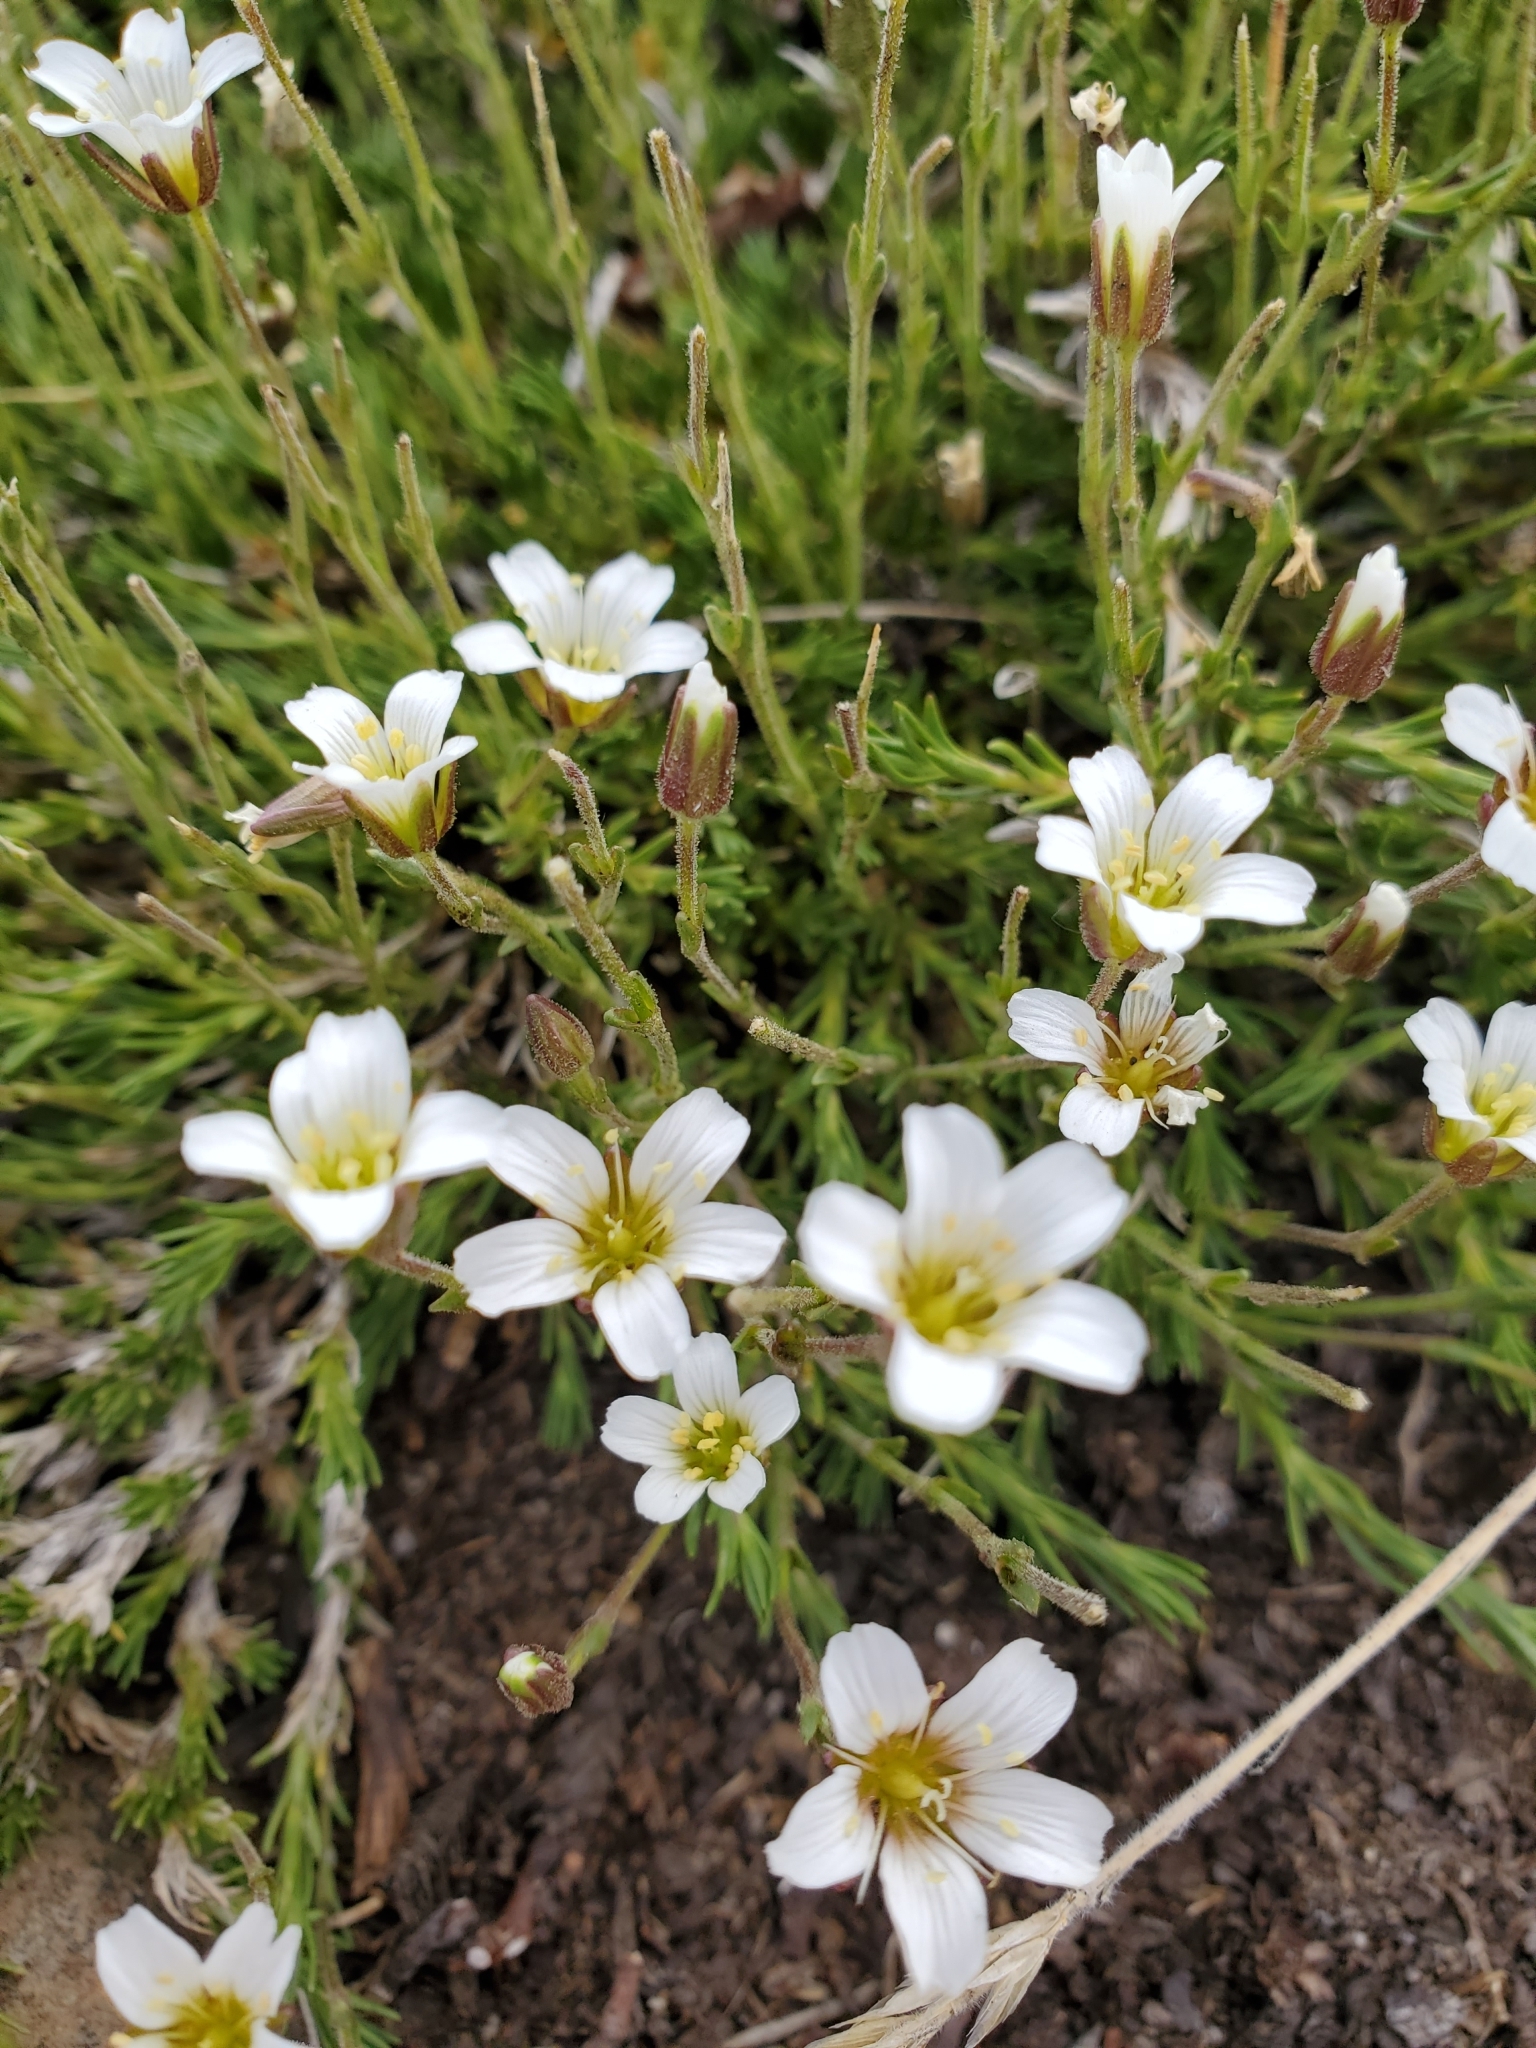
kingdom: Plantae
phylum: Tracheophyta
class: Magnoliopsida
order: Caryophyllales
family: Caryophyllaceae
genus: Cherleria
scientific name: Cherleria obtusiloba
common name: Alpine stitchwort
